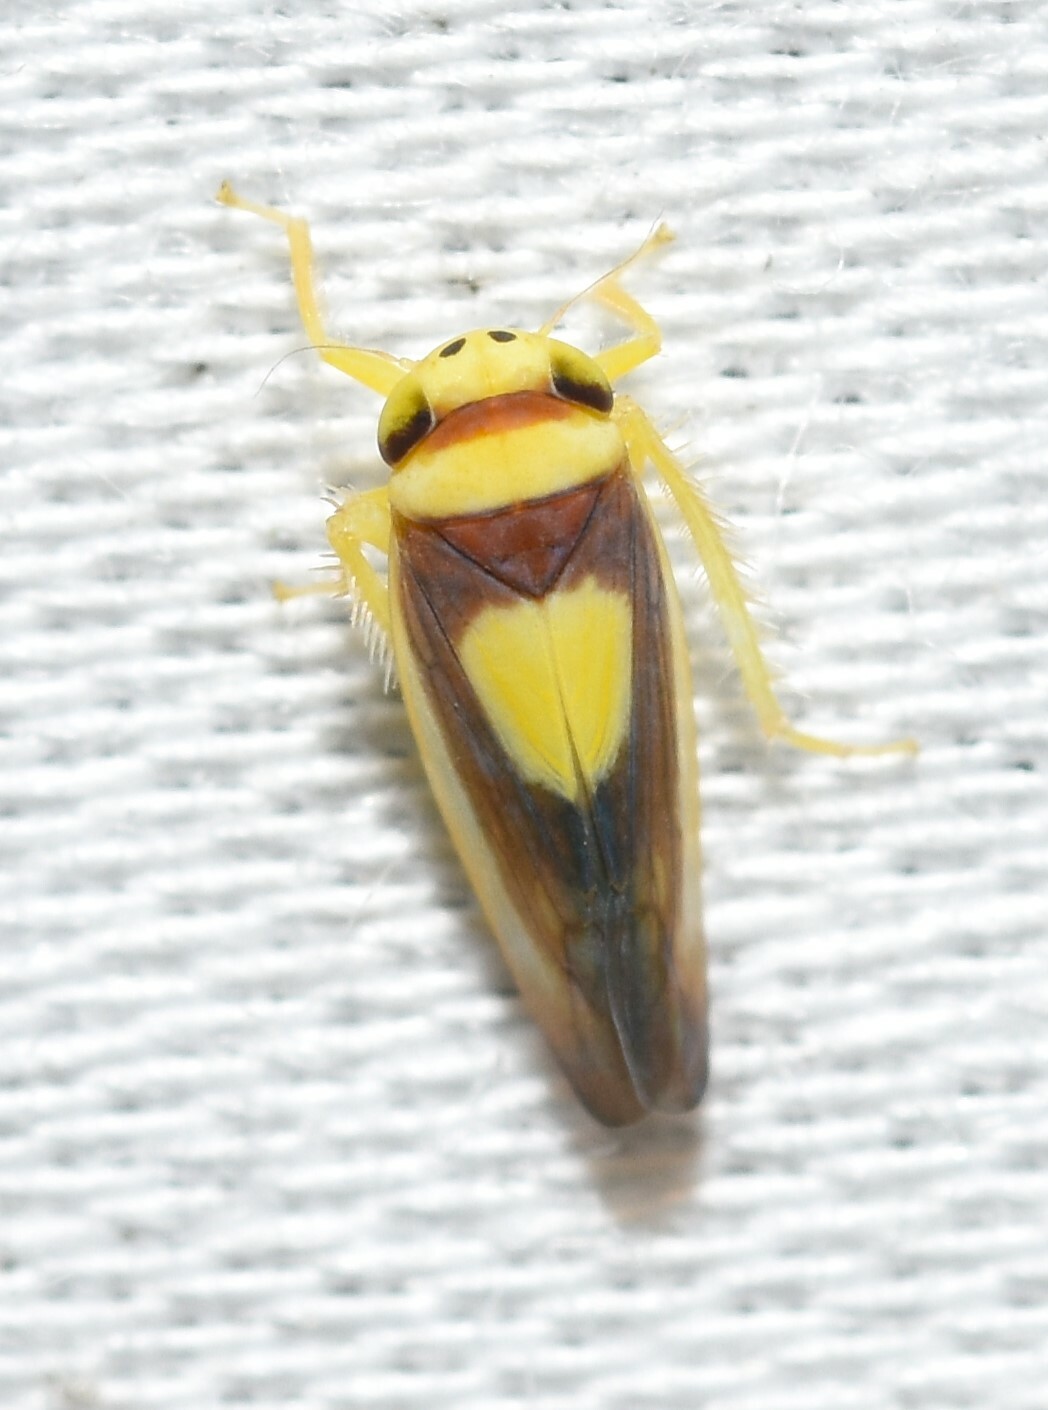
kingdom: Animalia
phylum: Arthropoda
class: Insecta
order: Hemiptera
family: Cicadellidae
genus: Colladonus
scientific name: Colladonus clitellarius
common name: The saddleback leafhopper
